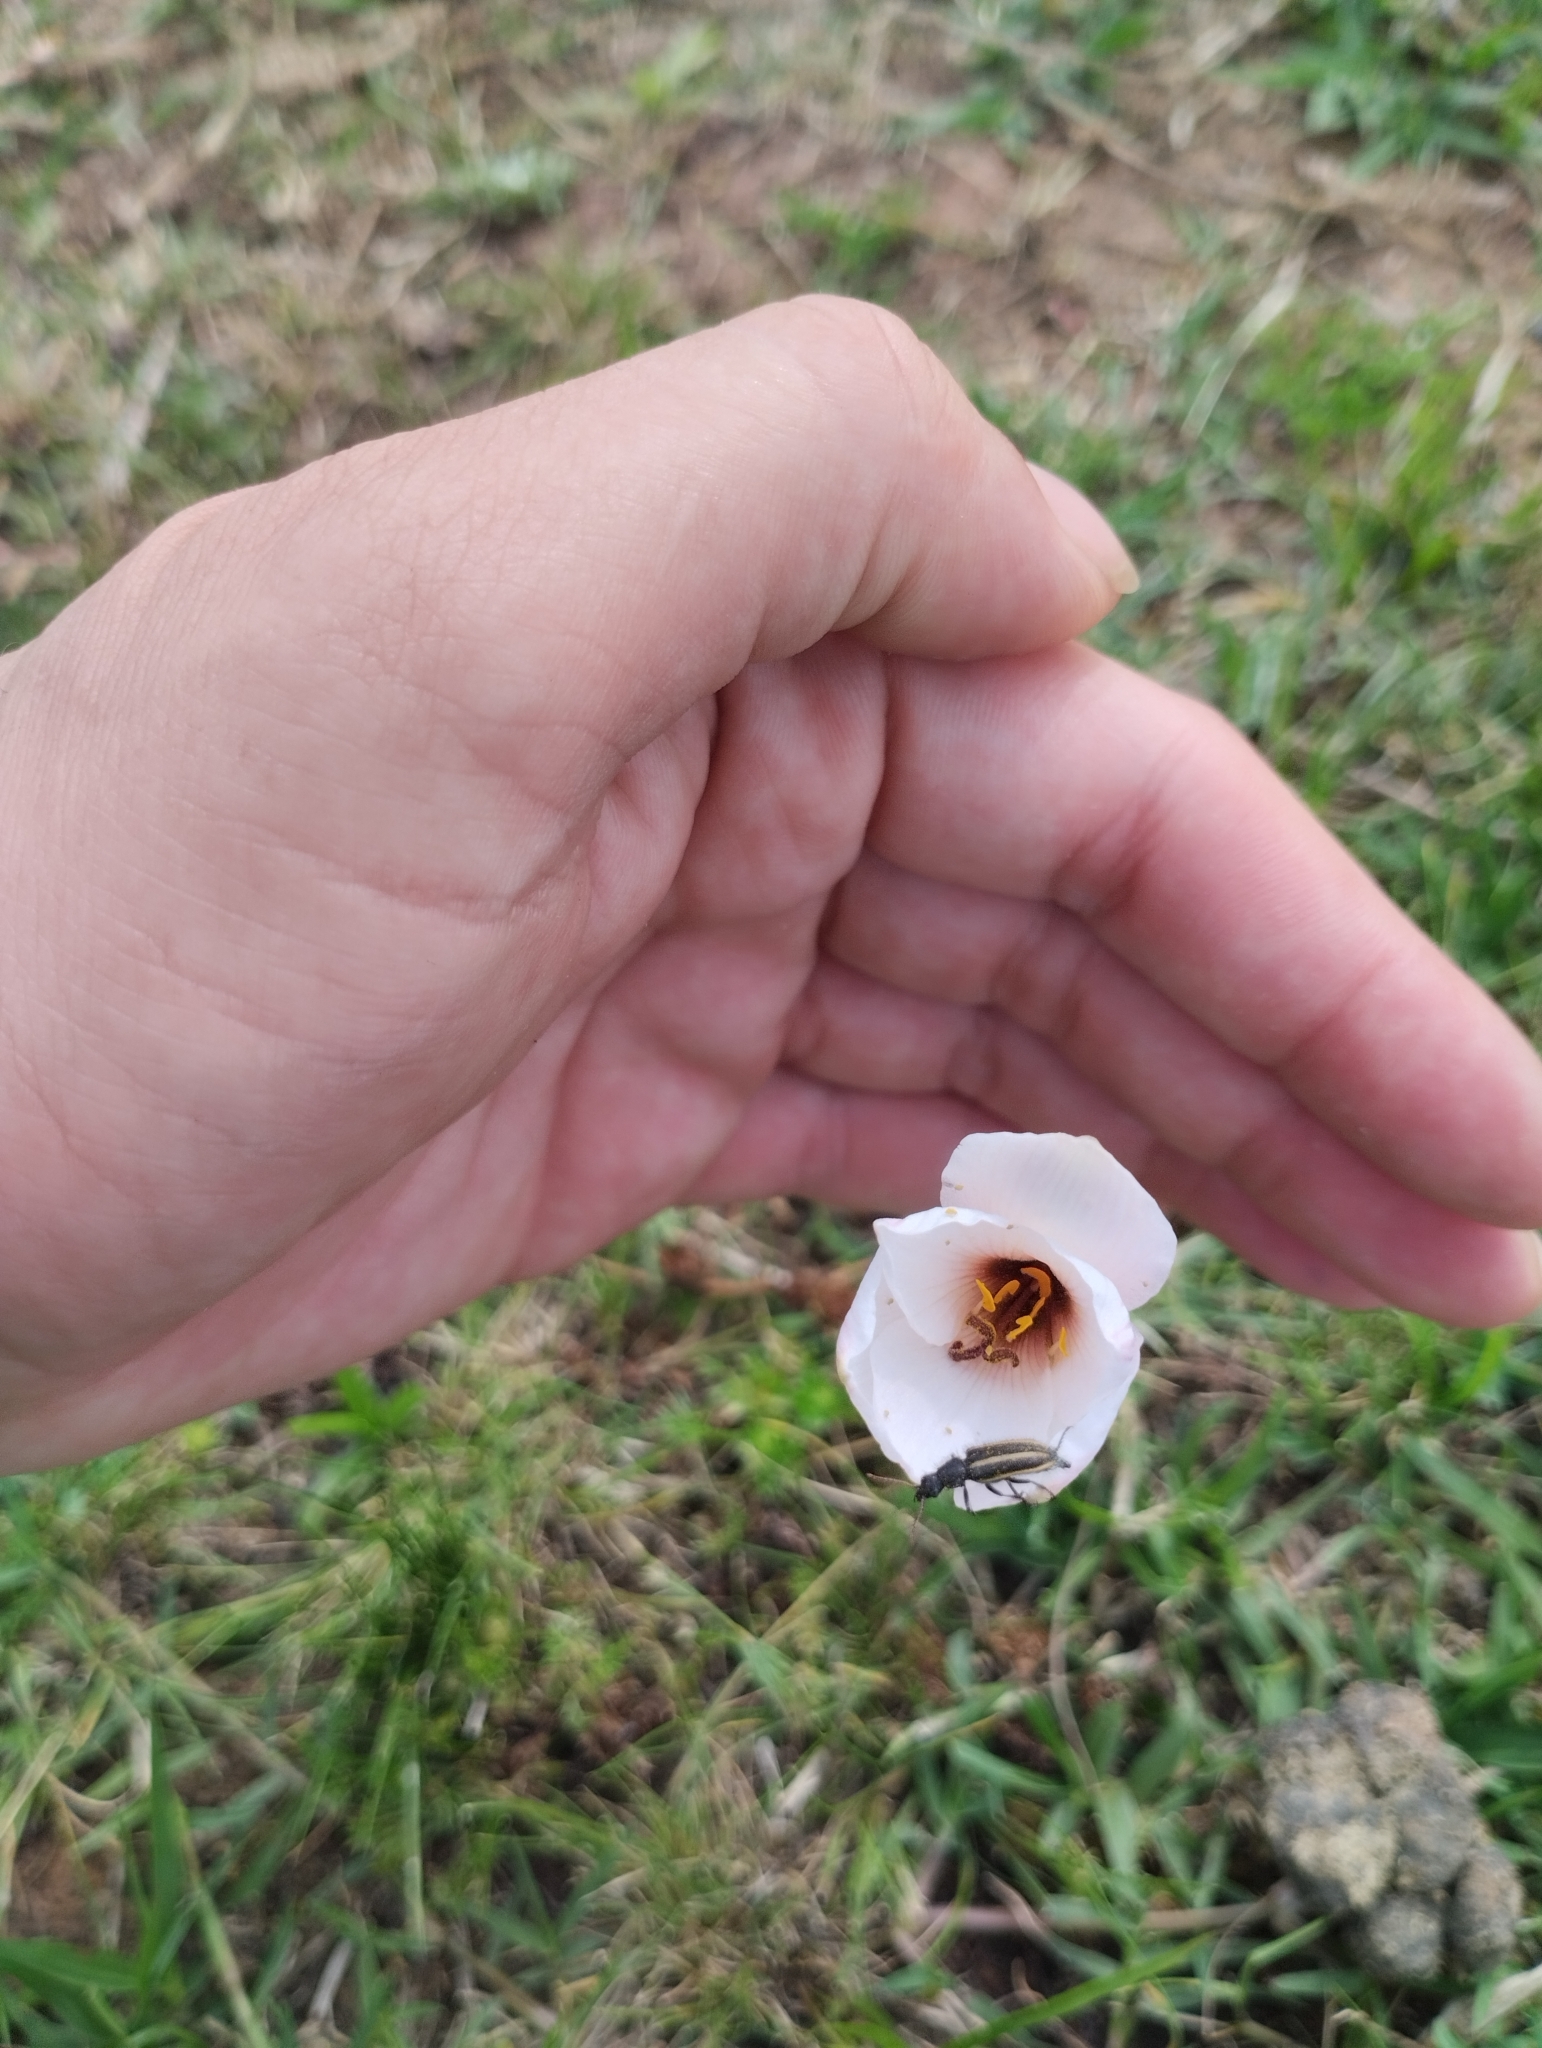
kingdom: Animalia
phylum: Arthropoda
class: Insecta
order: Coleoptera
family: Melyridae
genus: Astylus
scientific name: Astylus
